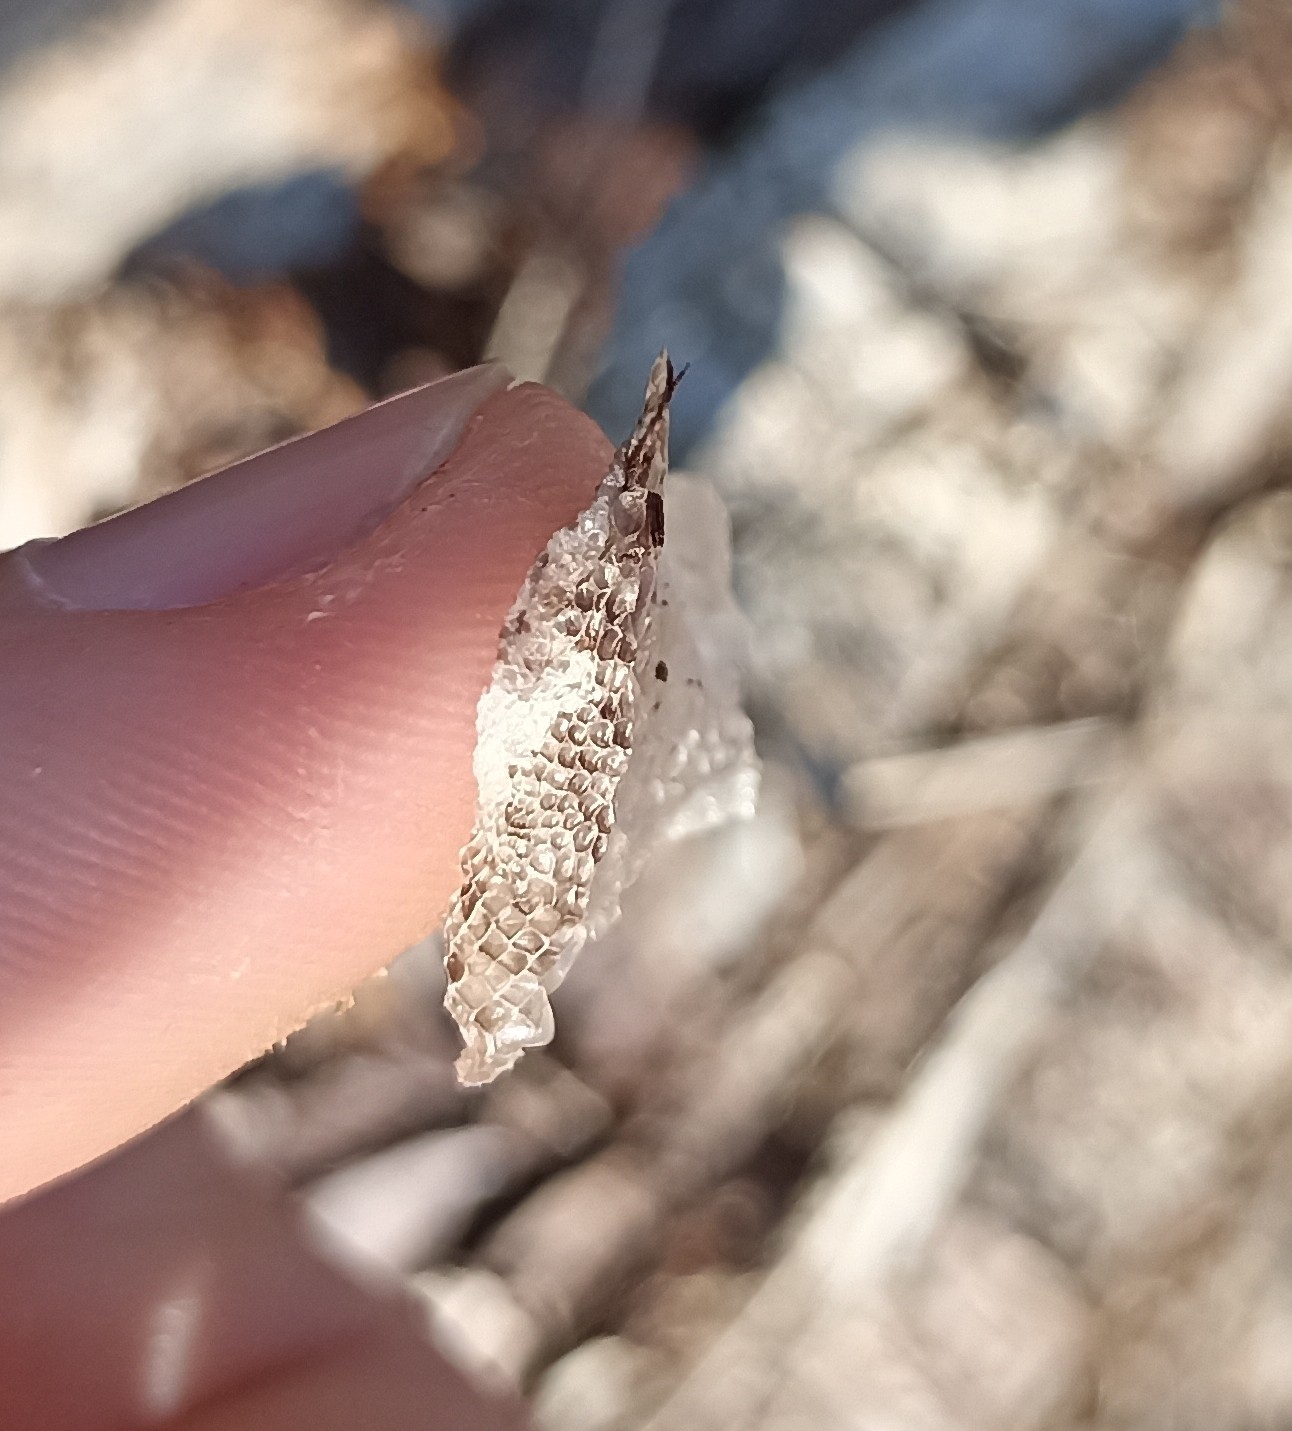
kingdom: Animalia
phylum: Chordata
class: Squamata
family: Lacertidae
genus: Lacerta
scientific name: Lacerta bilineata
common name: Western green lizard
